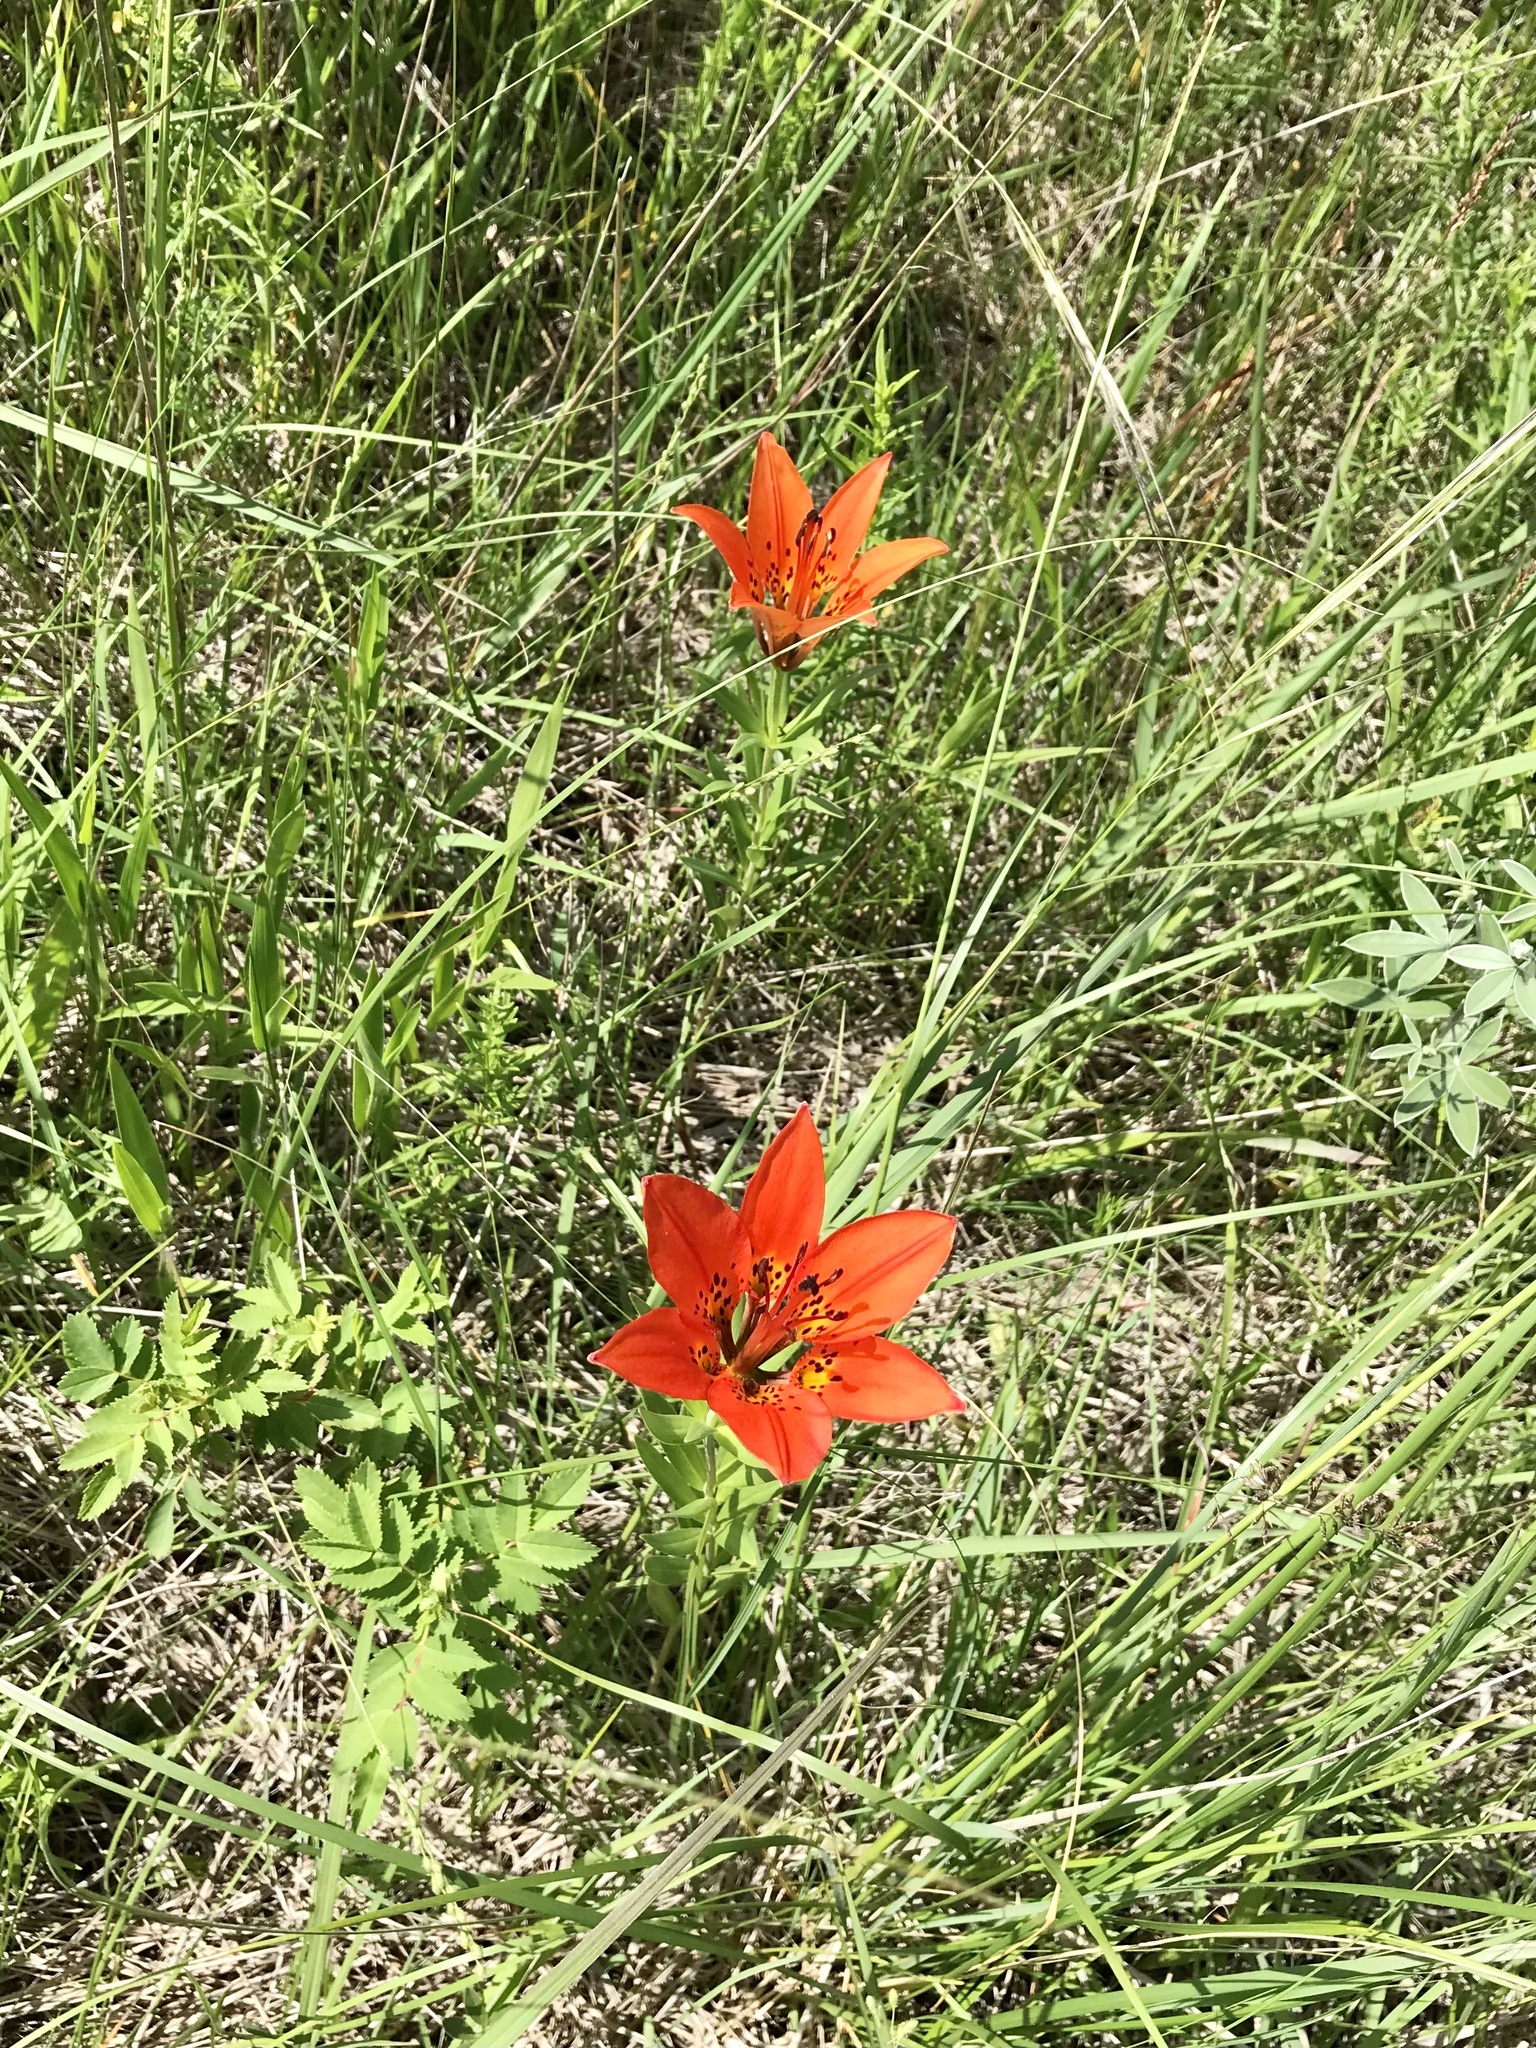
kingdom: Plantae
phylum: Tracheophyta
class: Liliopsida
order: Liliales
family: Liliaceae
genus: Lilium
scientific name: Lilium philadelphicum
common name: Red lily
